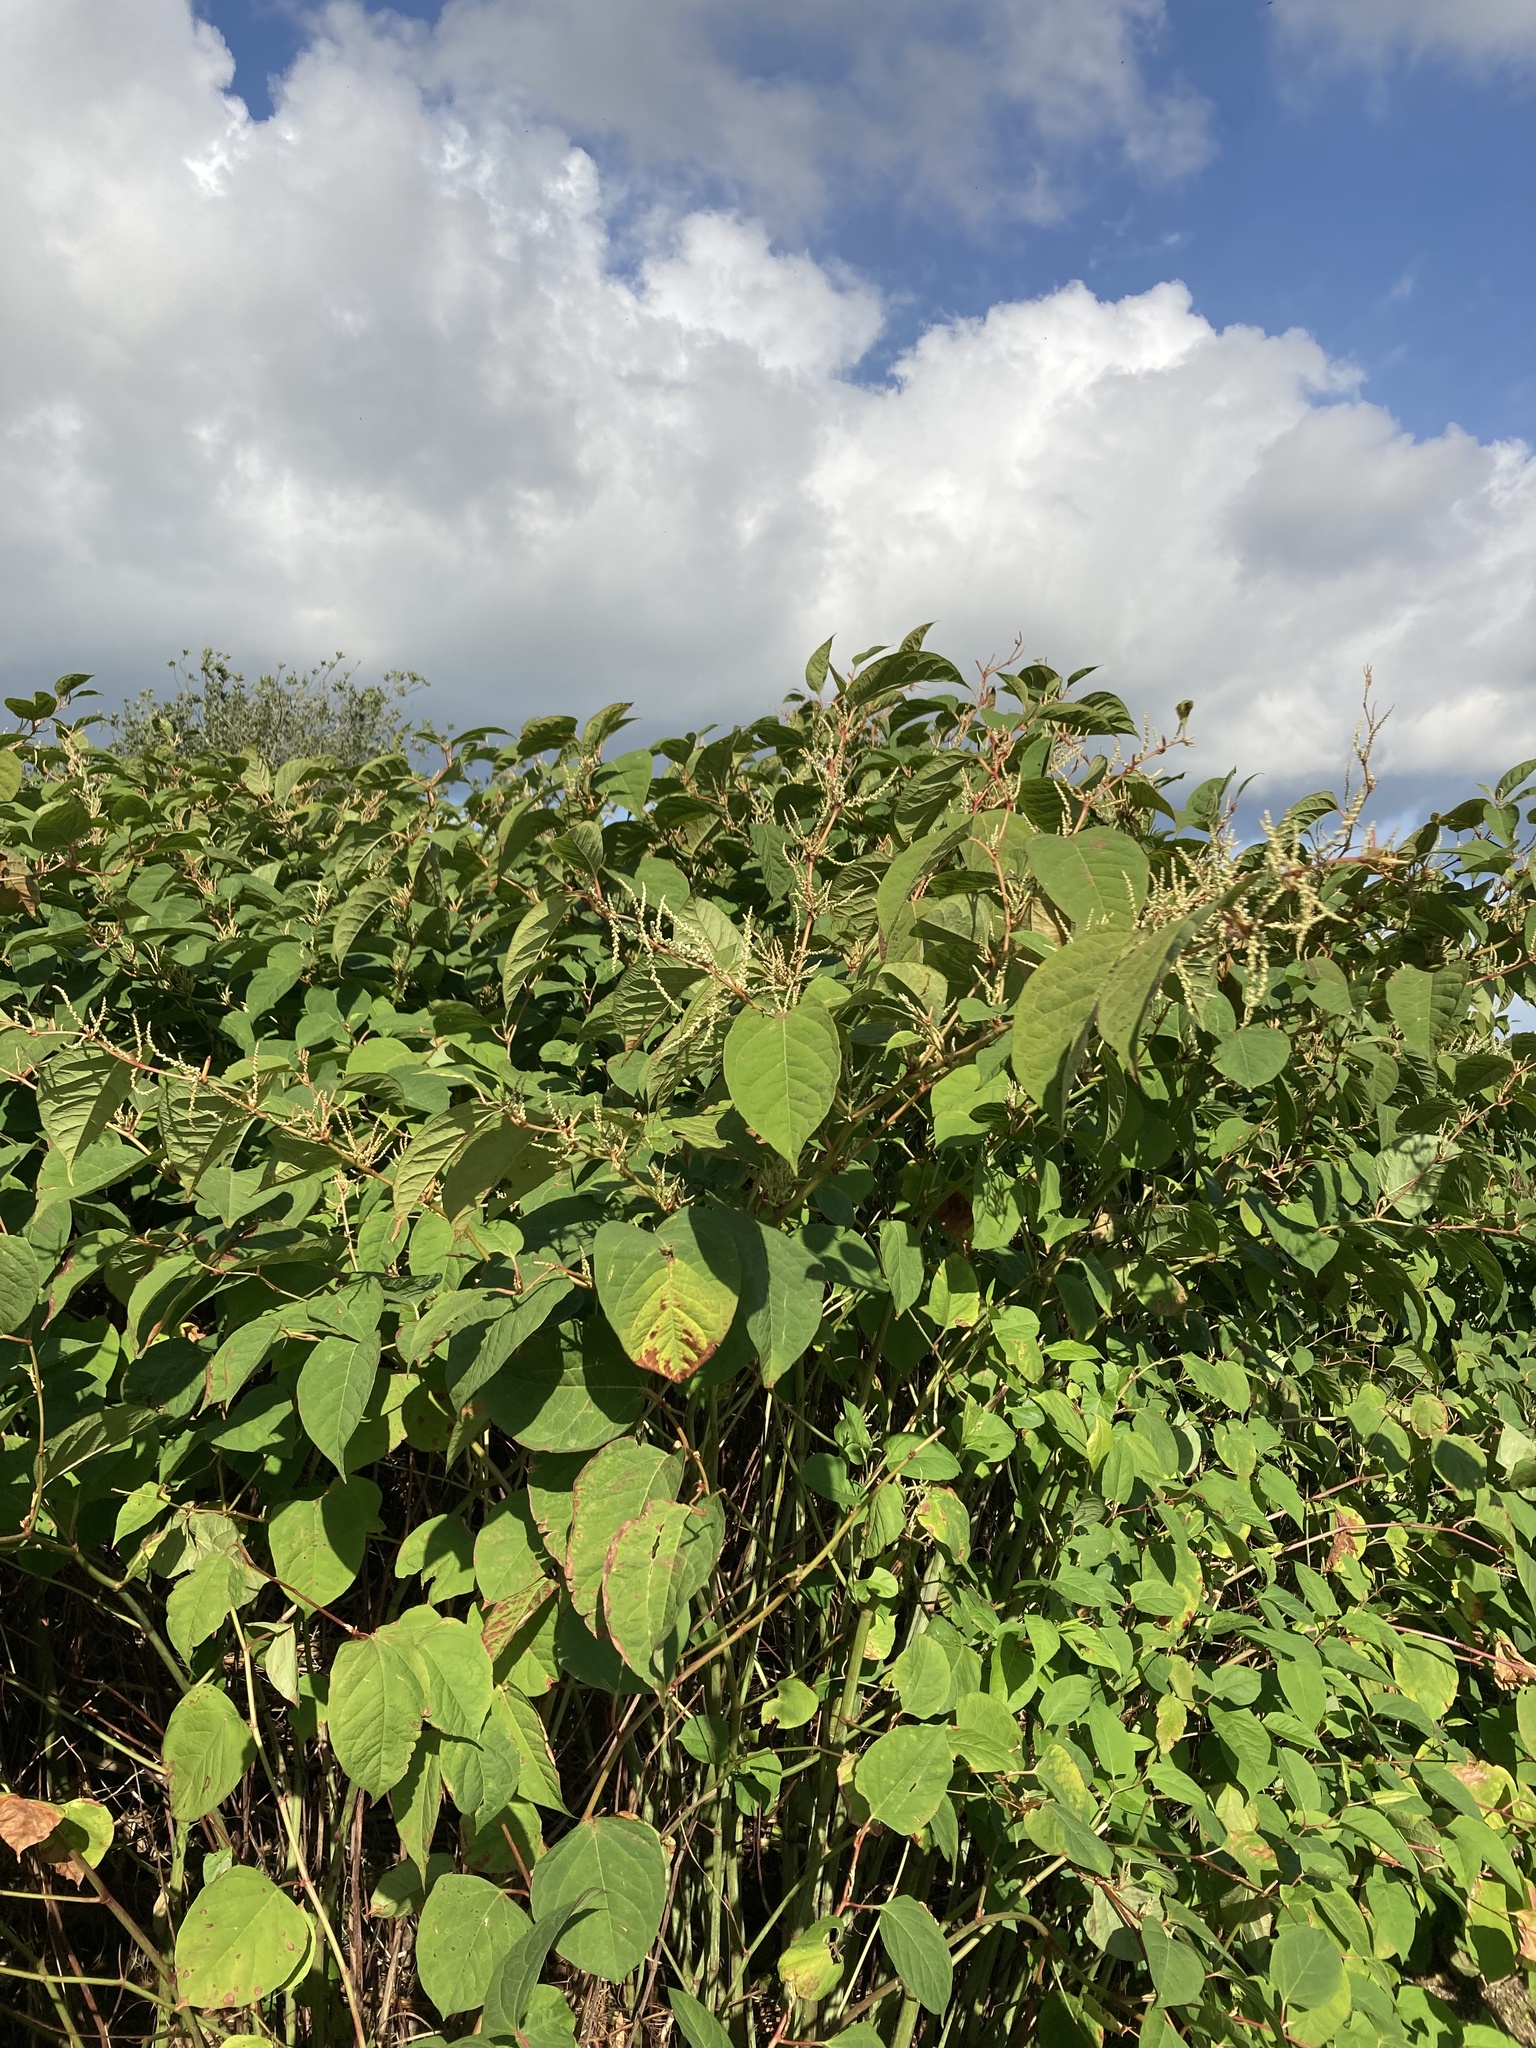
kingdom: Plantae
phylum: Tracheophyta
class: Magnoliopsida
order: Caryophyllales
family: Polygonaceae
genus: Reynoutria
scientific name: Reynoutria japonica
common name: Japanese knotweed
